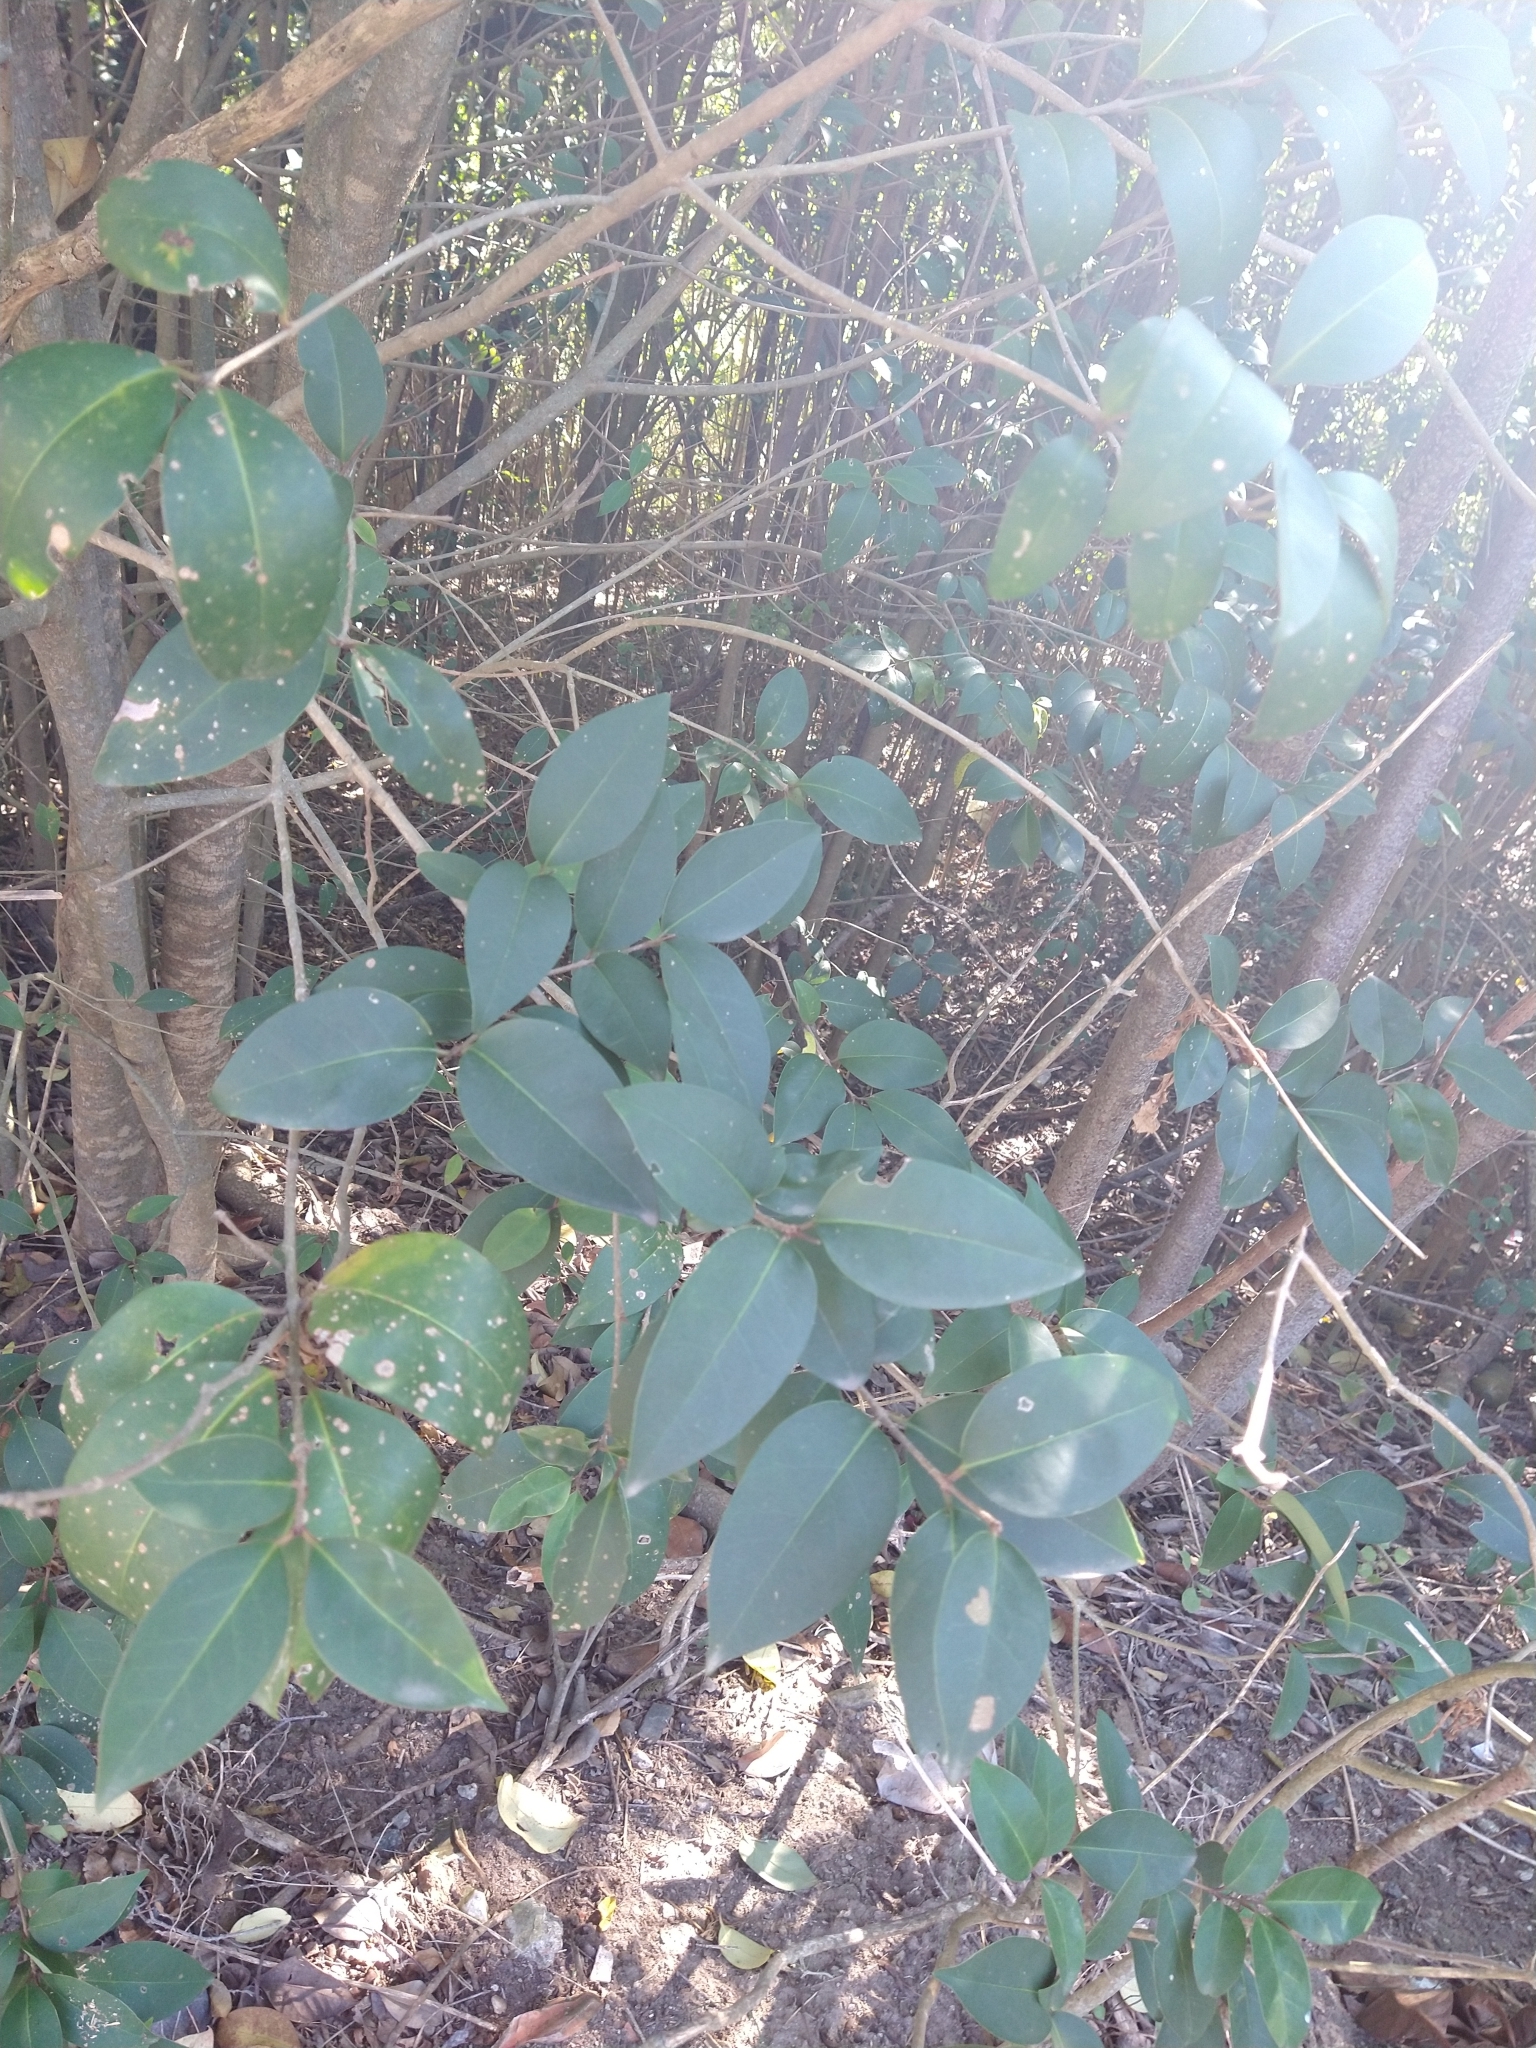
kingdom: Plantae
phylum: Tracheophyta
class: Magnoliopsida
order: Lamiales
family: Oleaceae
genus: Ligustrum
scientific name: Ligustrum lucidum
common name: Glossy privet
